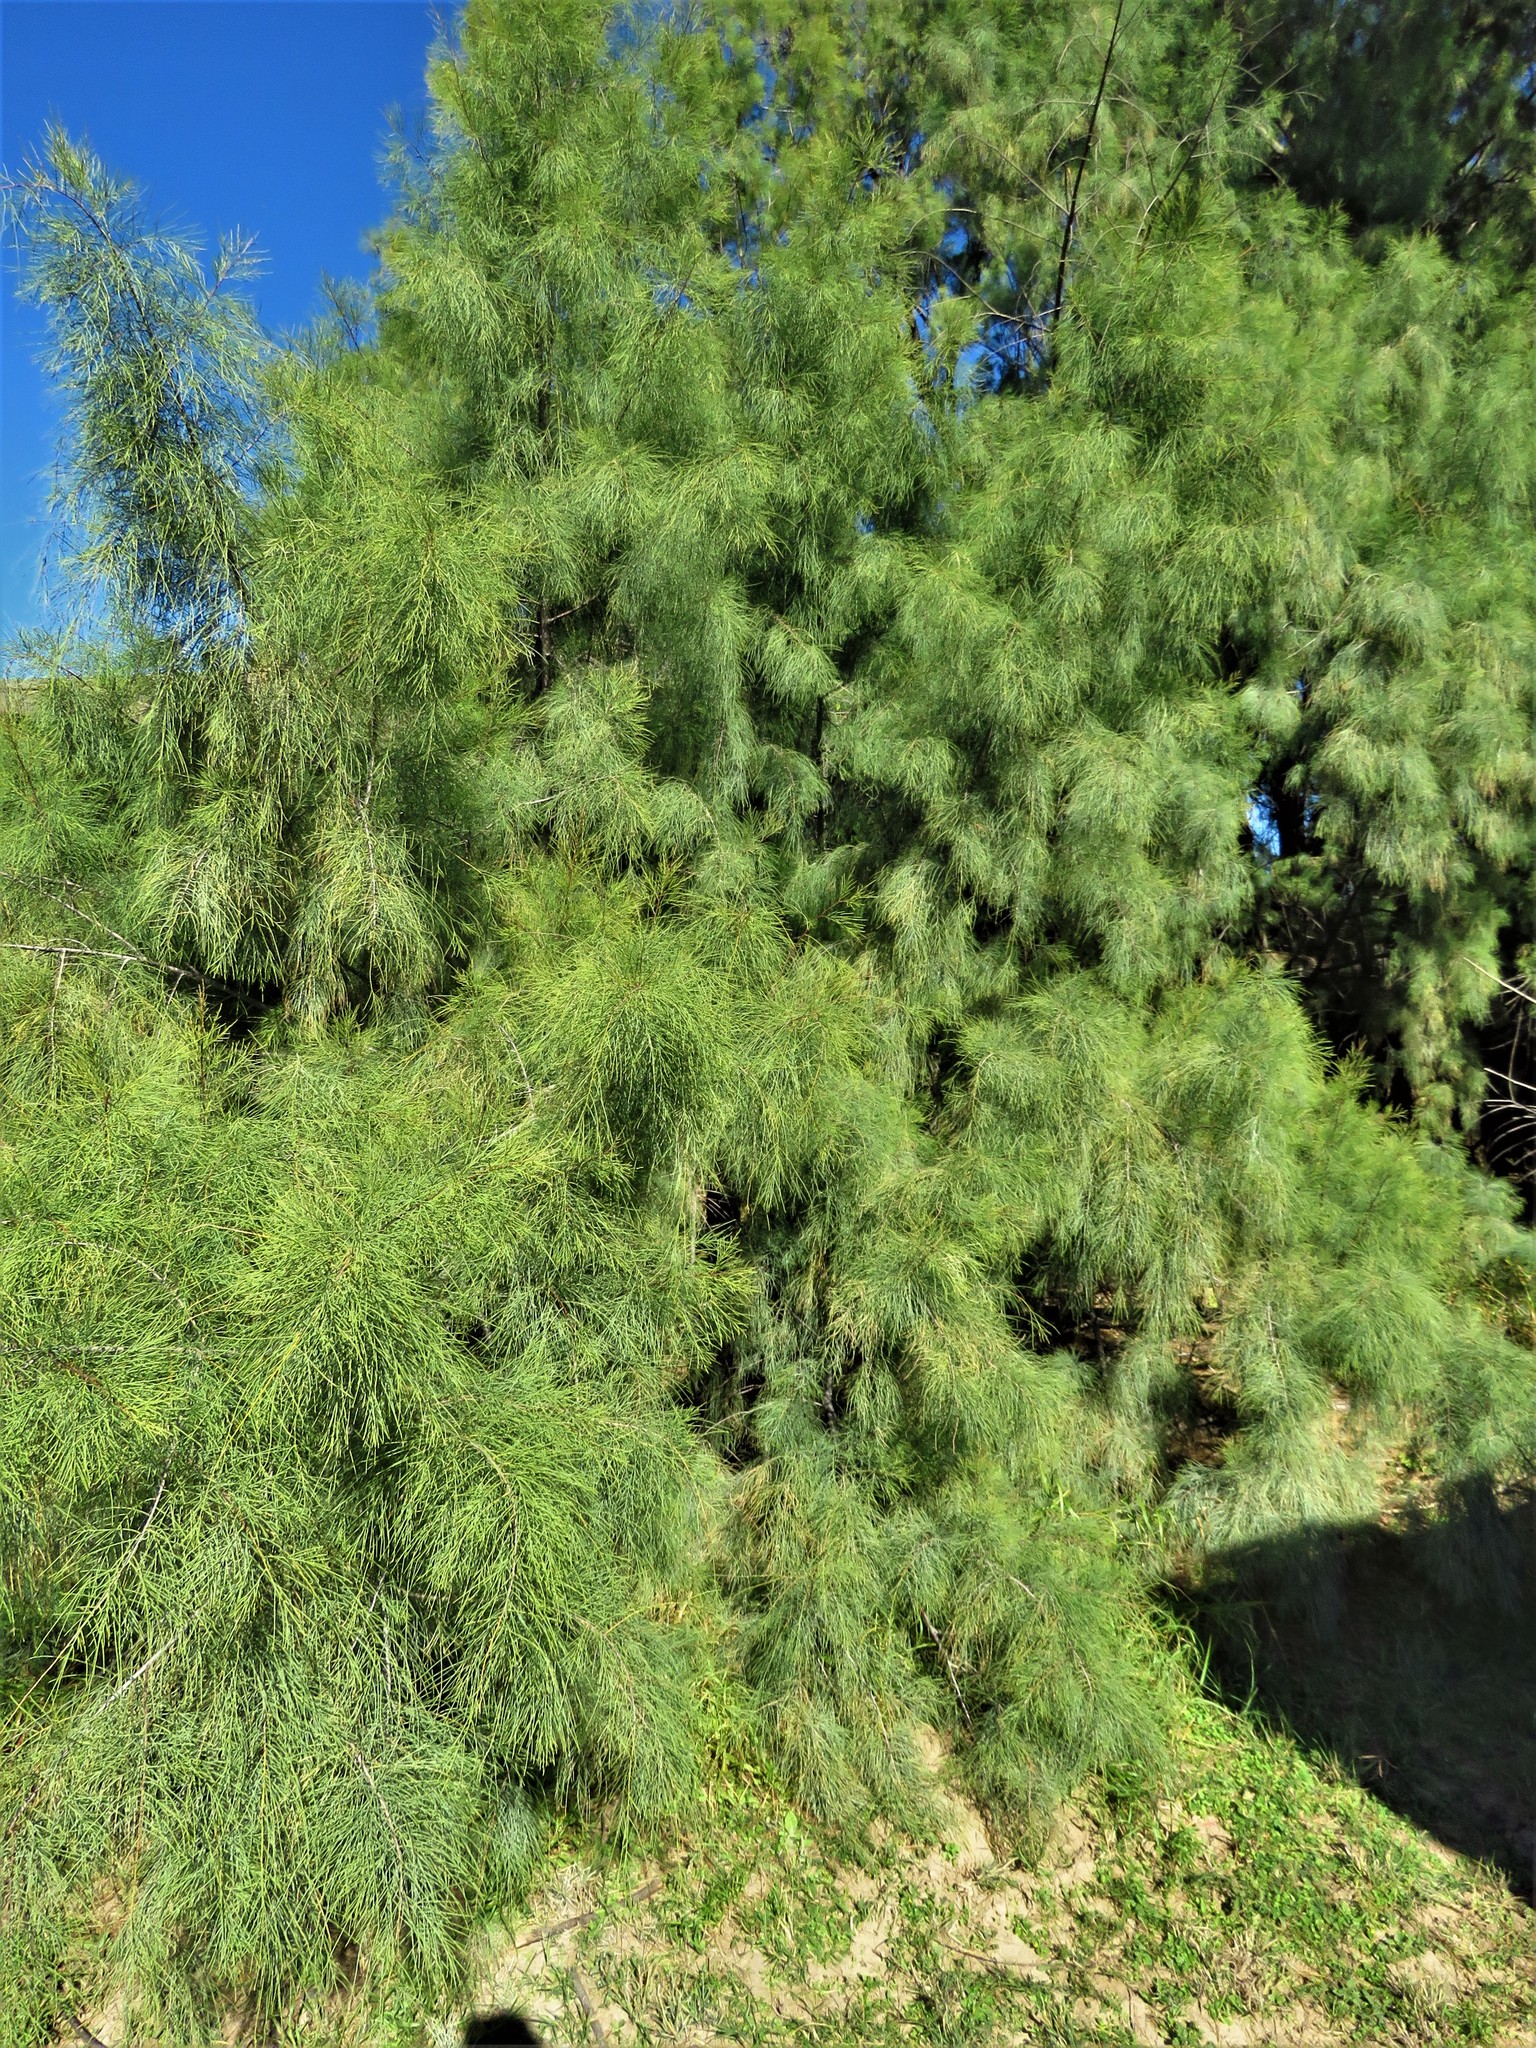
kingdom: Plantae
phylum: Tracheophyta
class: Magnoliopsida
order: Caryophyllales
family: Tamaricaceae
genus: Tamarix
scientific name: Tamarix aphylla
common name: Athel tamarisk
